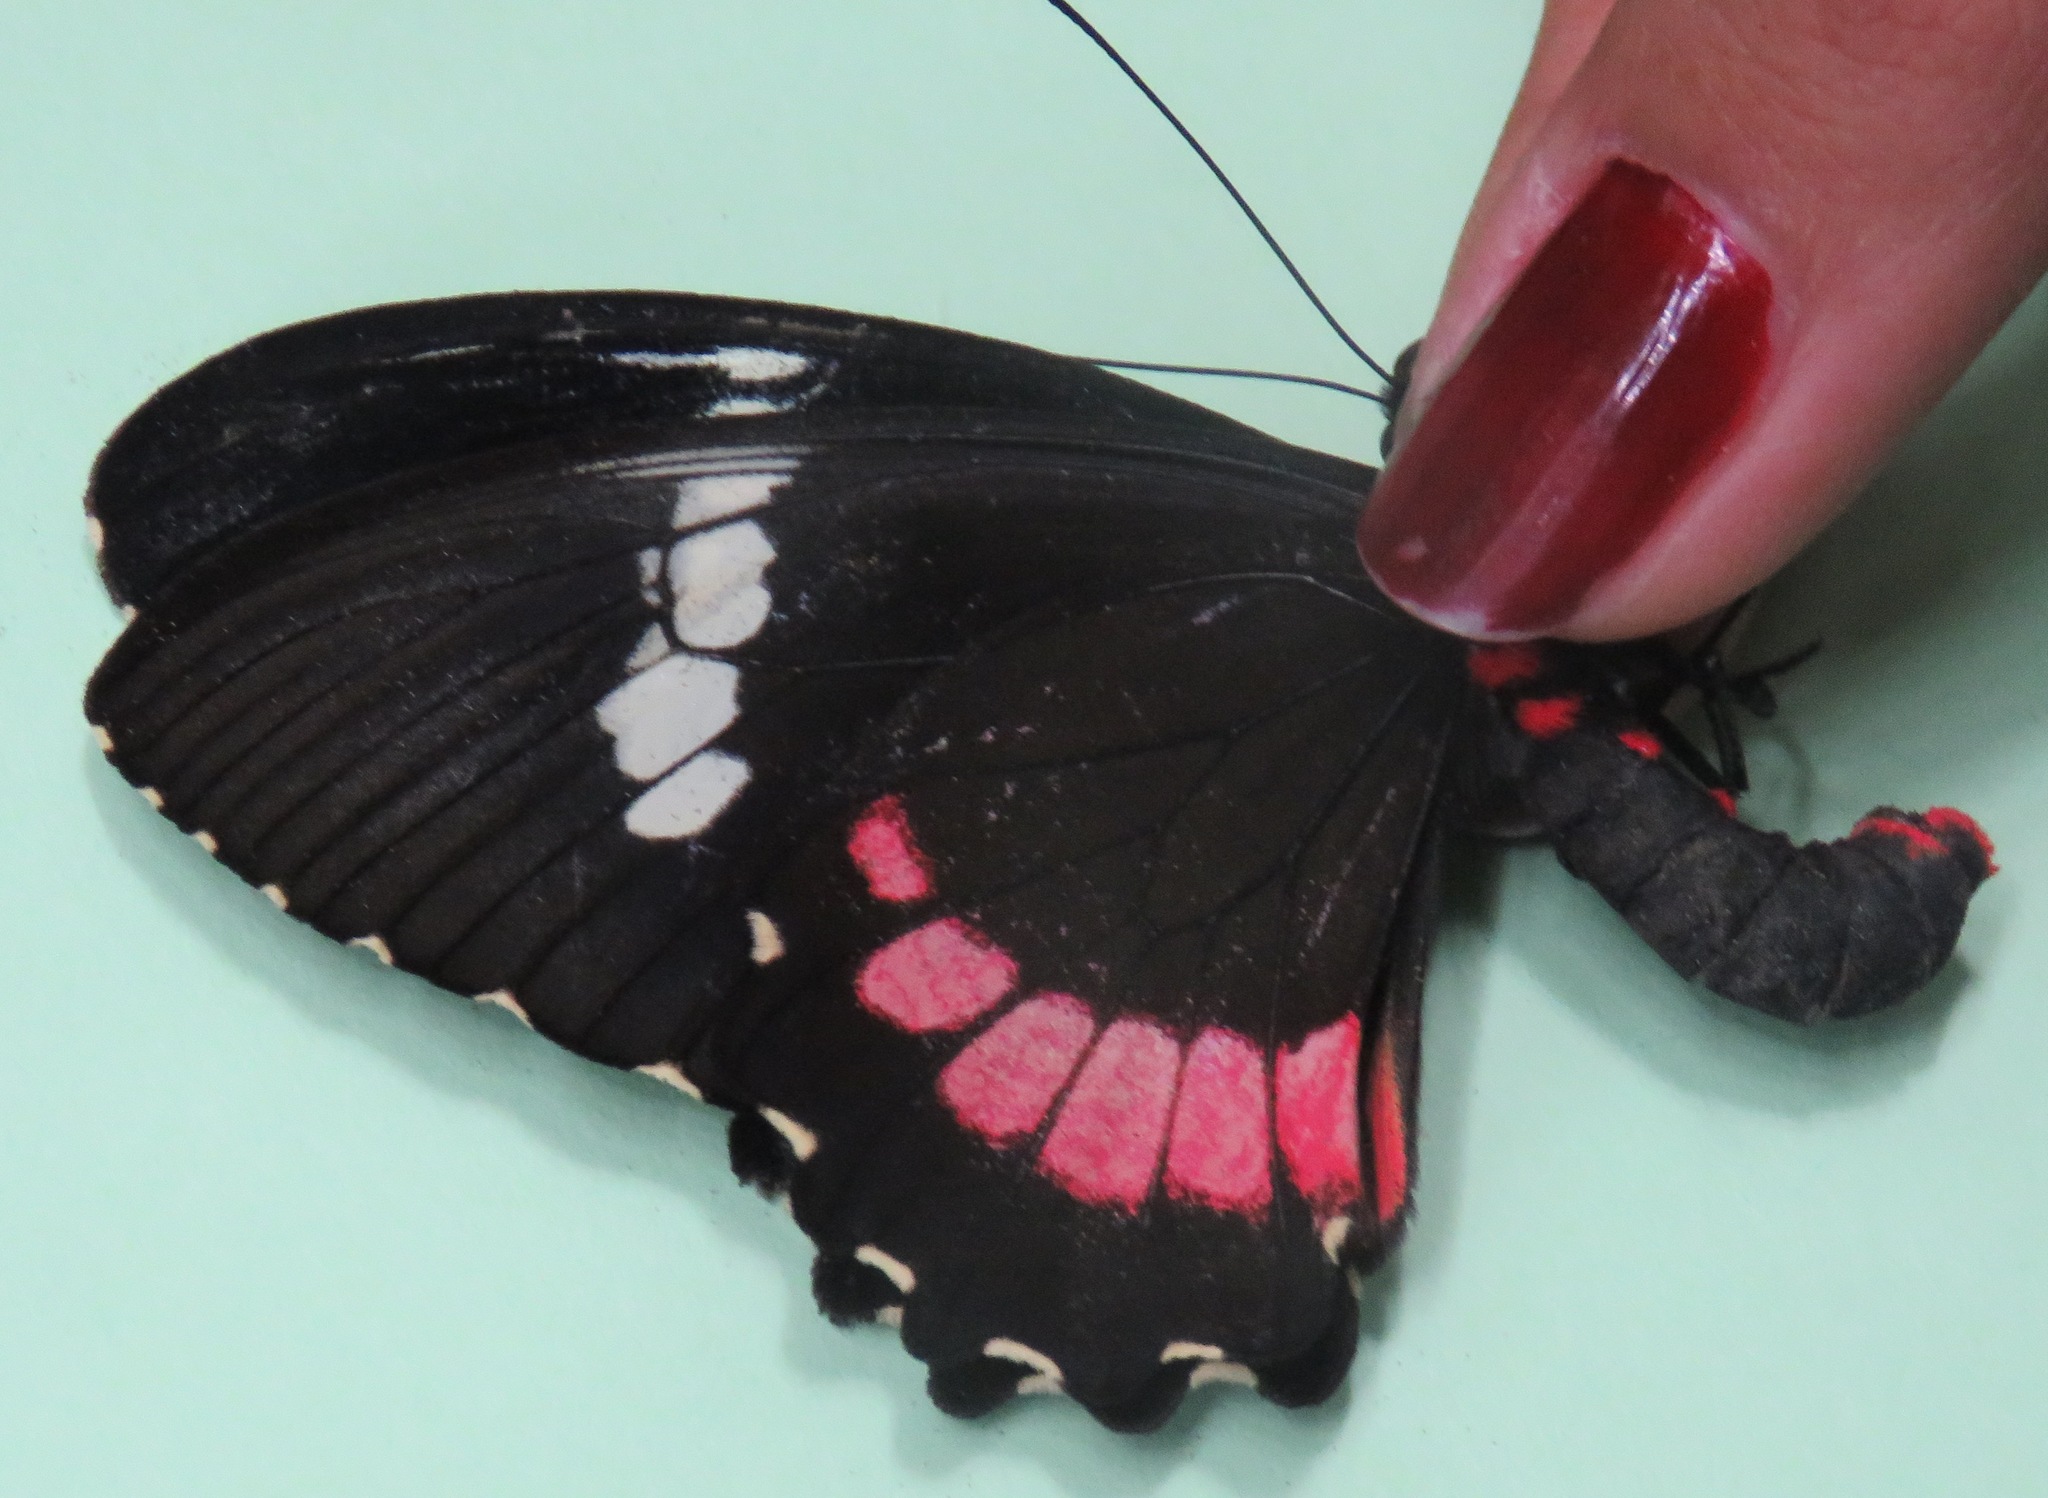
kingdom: Animalia
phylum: Arthropoda
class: Insecta
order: Lepidoptera
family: Papilionidae
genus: Parides
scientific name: Parides iphidamas
